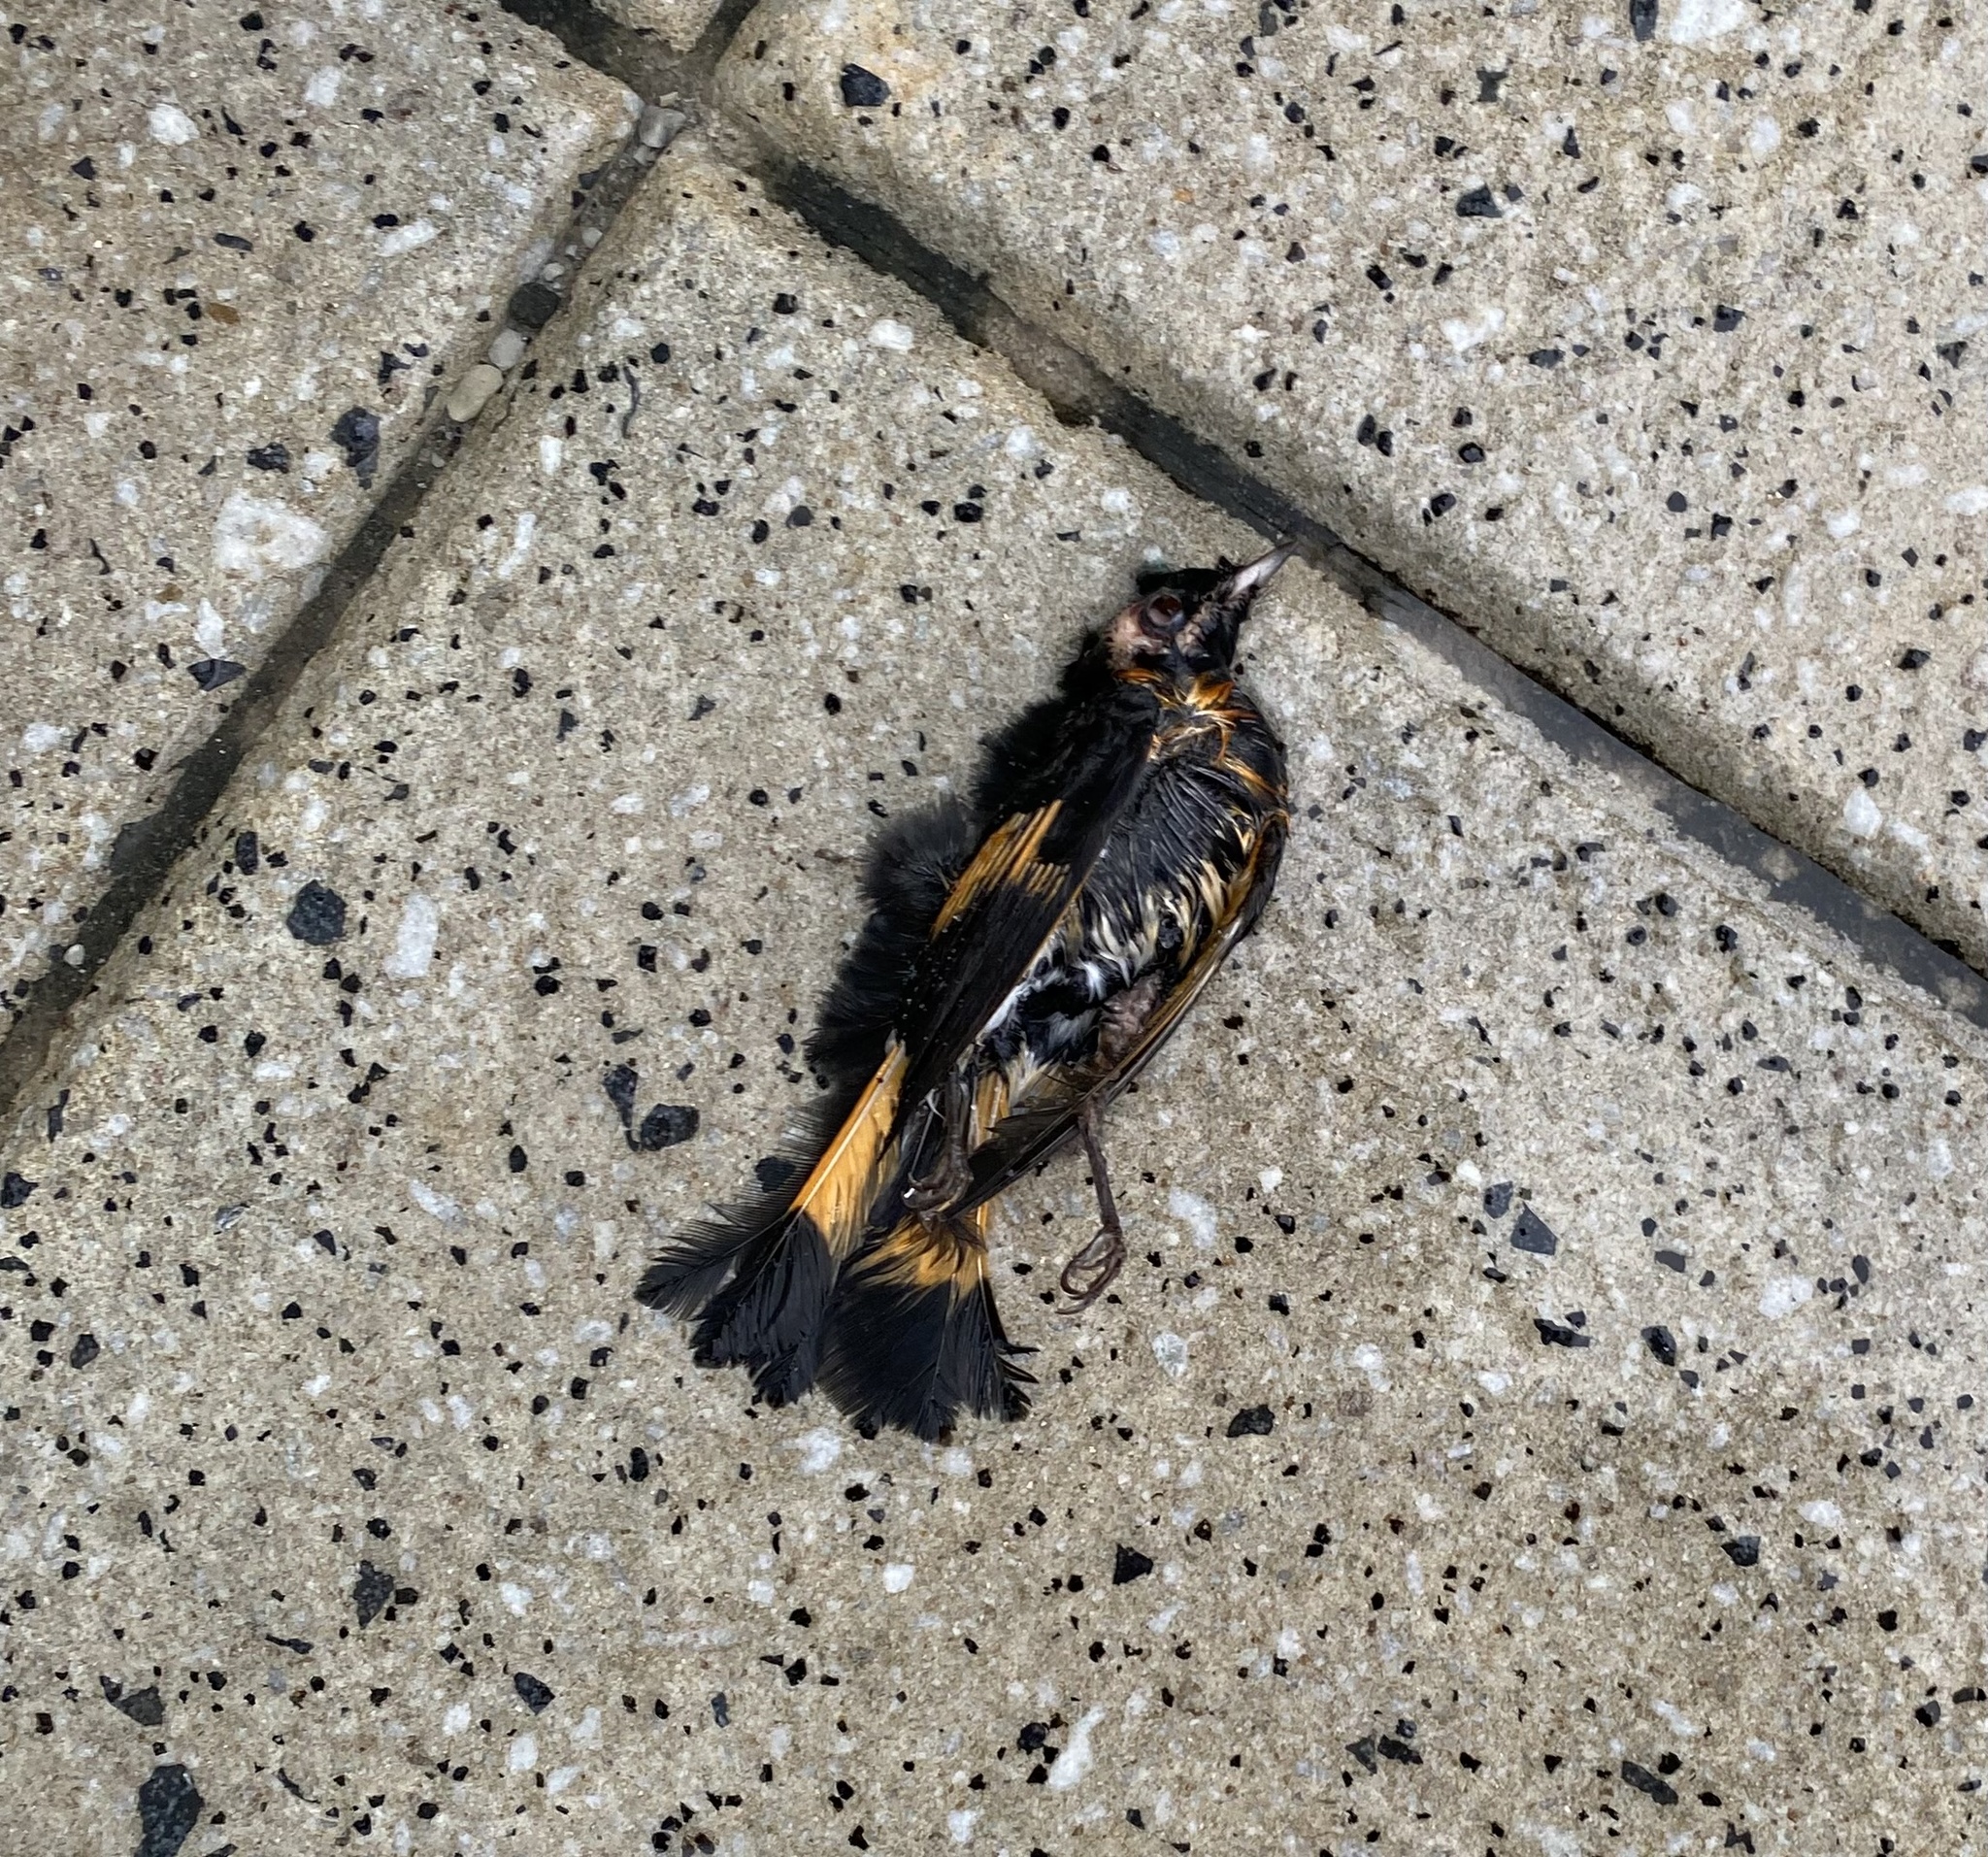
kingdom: Animalia
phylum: Chordata
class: Aves
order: Passeriformes
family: Parulidae
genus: Setophaga
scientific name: Setophaga ruticilla
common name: American redstart
